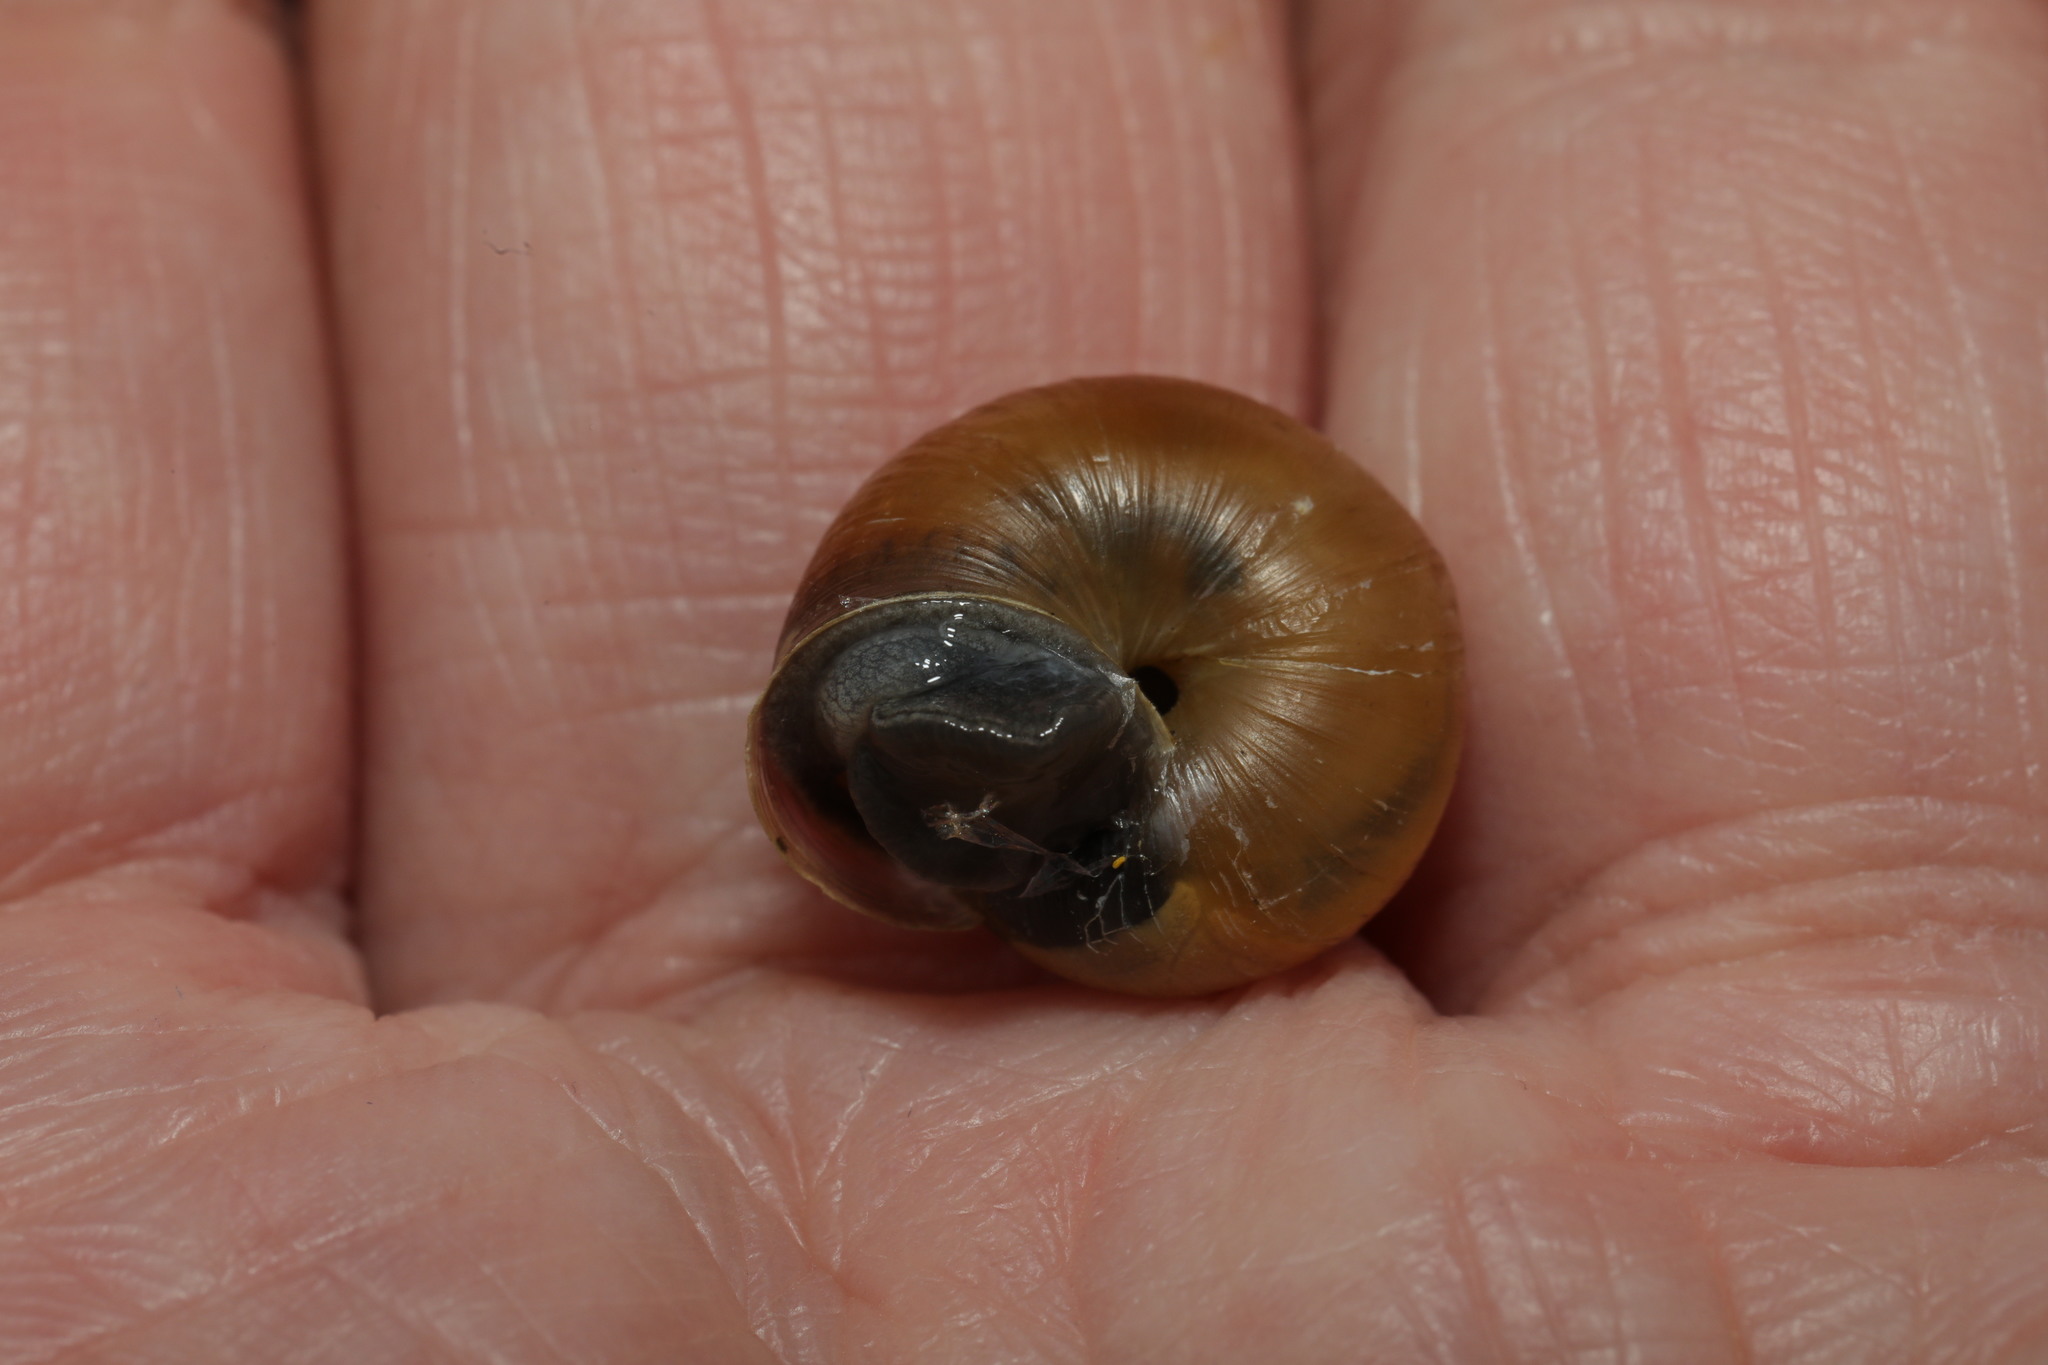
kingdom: Animalia
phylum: Mollusca
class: Gastropoda
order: Stylommatophora
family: Hygromiidae
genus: Monacha
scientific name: Monacha cantiana
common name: Kentish snail
